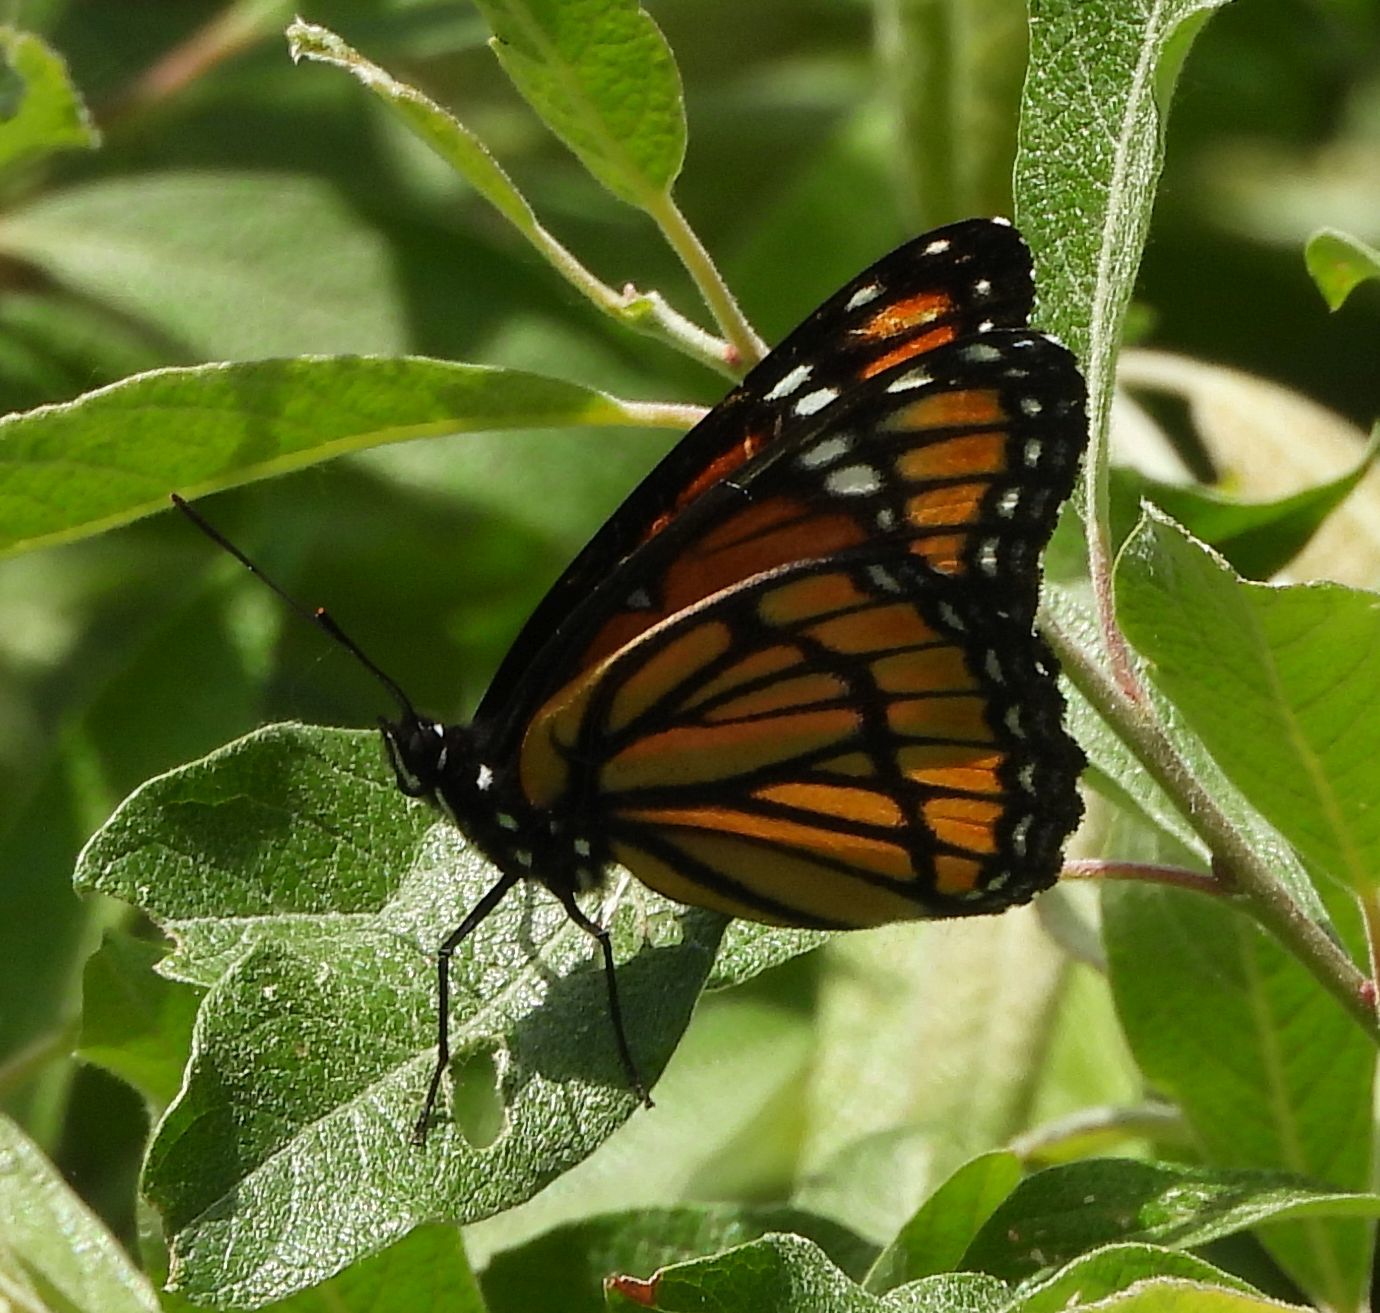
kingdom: Animalia
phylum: Arthropoda
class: Insecta
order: Lepidoptera
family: Nymphalidae
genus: Limenitis
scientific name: Limenitis archippus
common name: Viceroy
